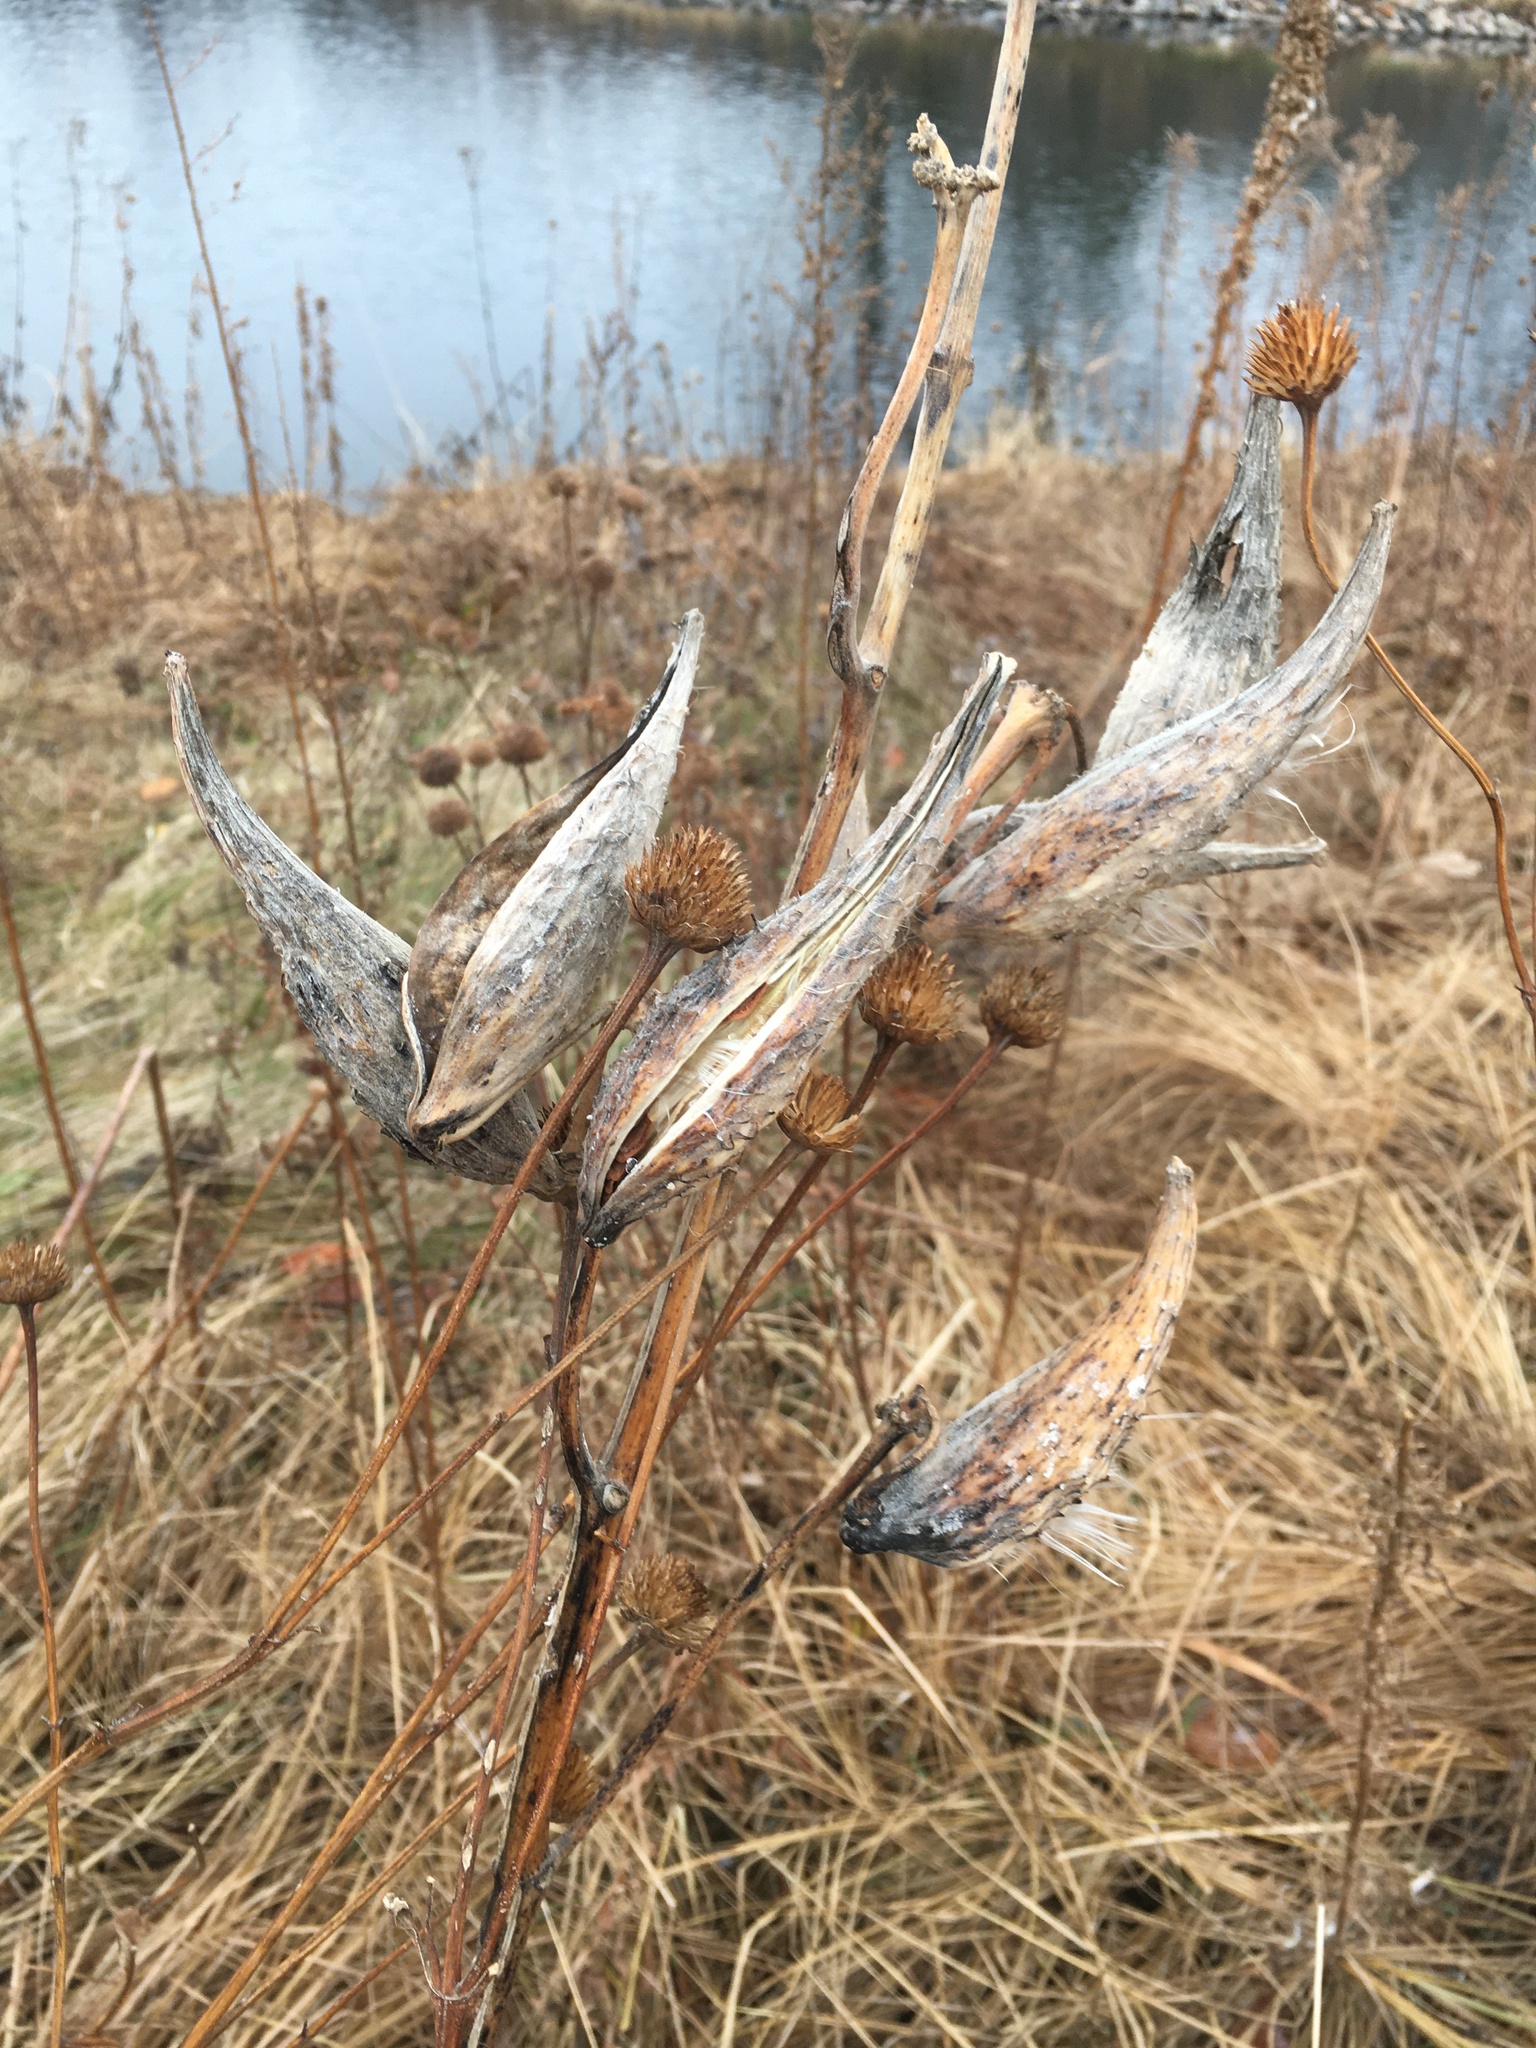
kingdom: Plantae
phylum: Tracheophyta
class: Magnoliopsida
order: Gentianales
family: Apocynaceae
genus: Asclepias
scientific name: Asclepias syriaca
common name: Common milkweed
